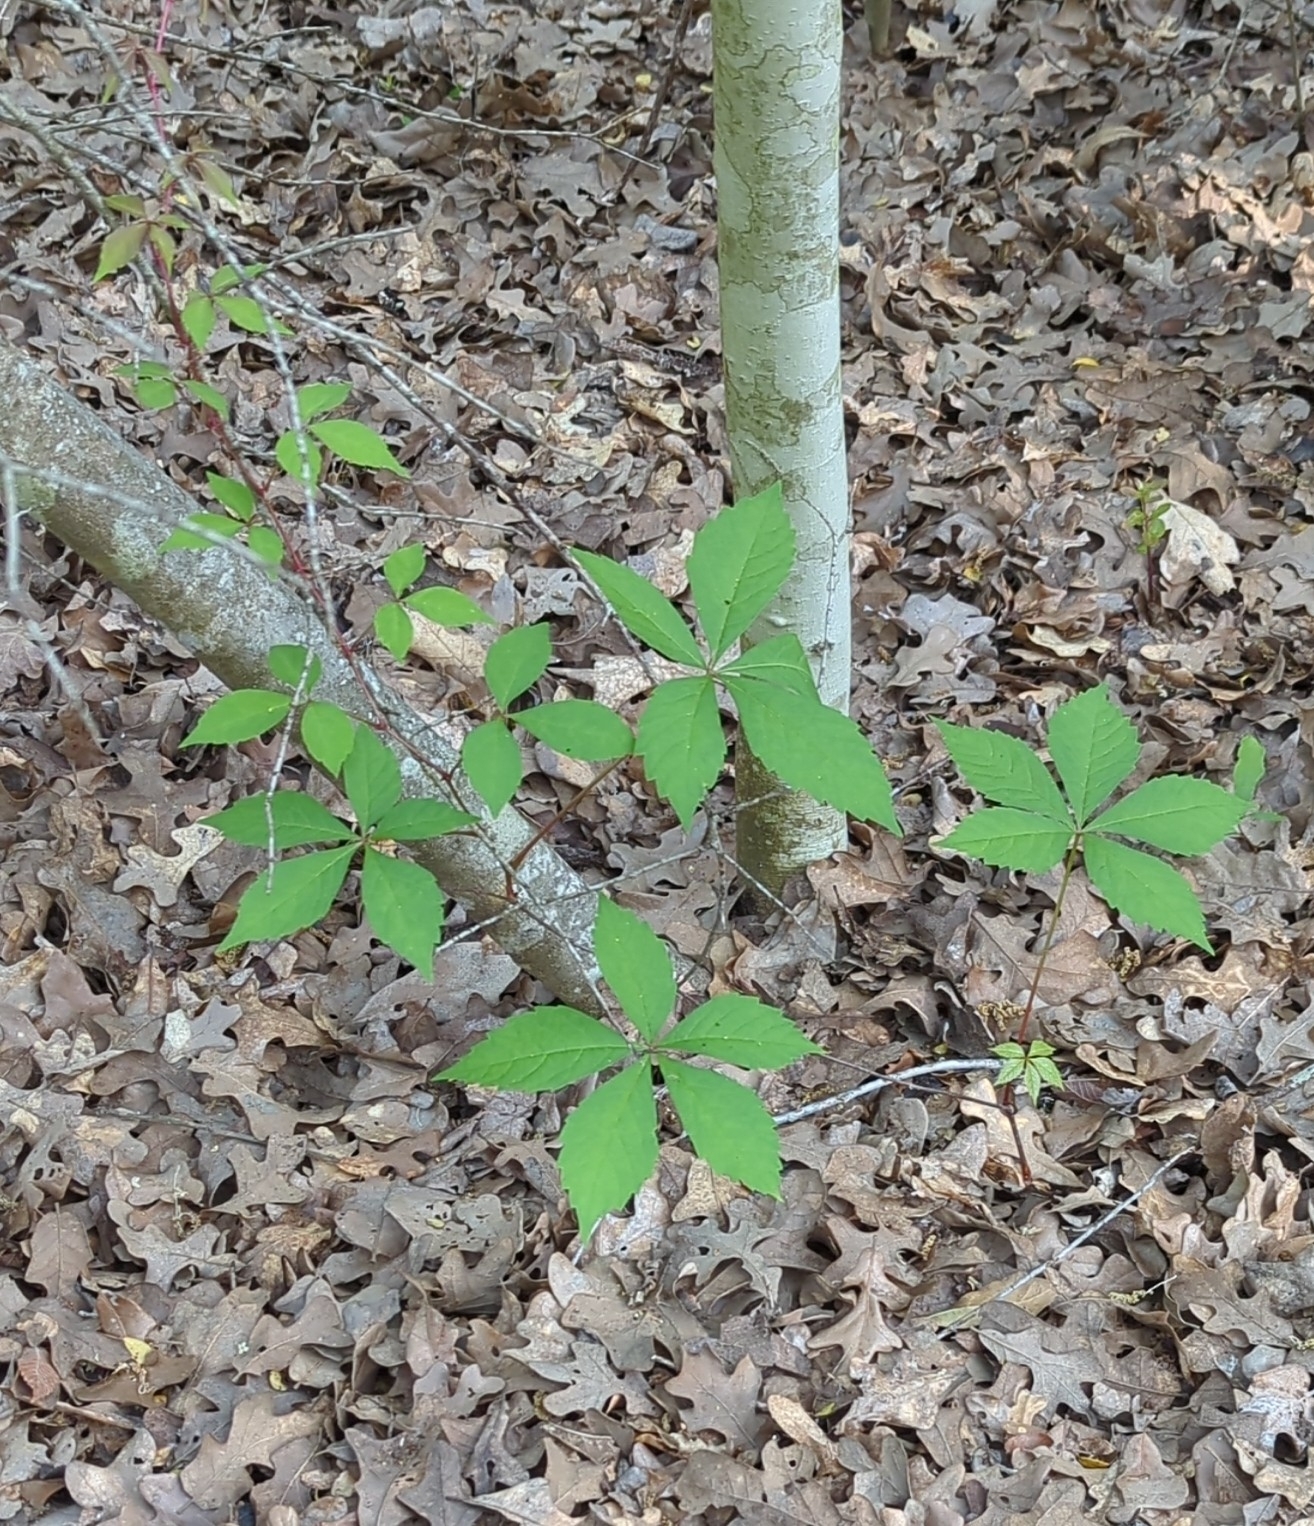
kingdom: Plantae
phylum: Tracheophyta
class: Magnoliopsida
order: Vitales
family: Vitaceae
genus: Parthenocissus
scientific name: Parthenocissus quinquefolia
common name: Virginia-creeper
